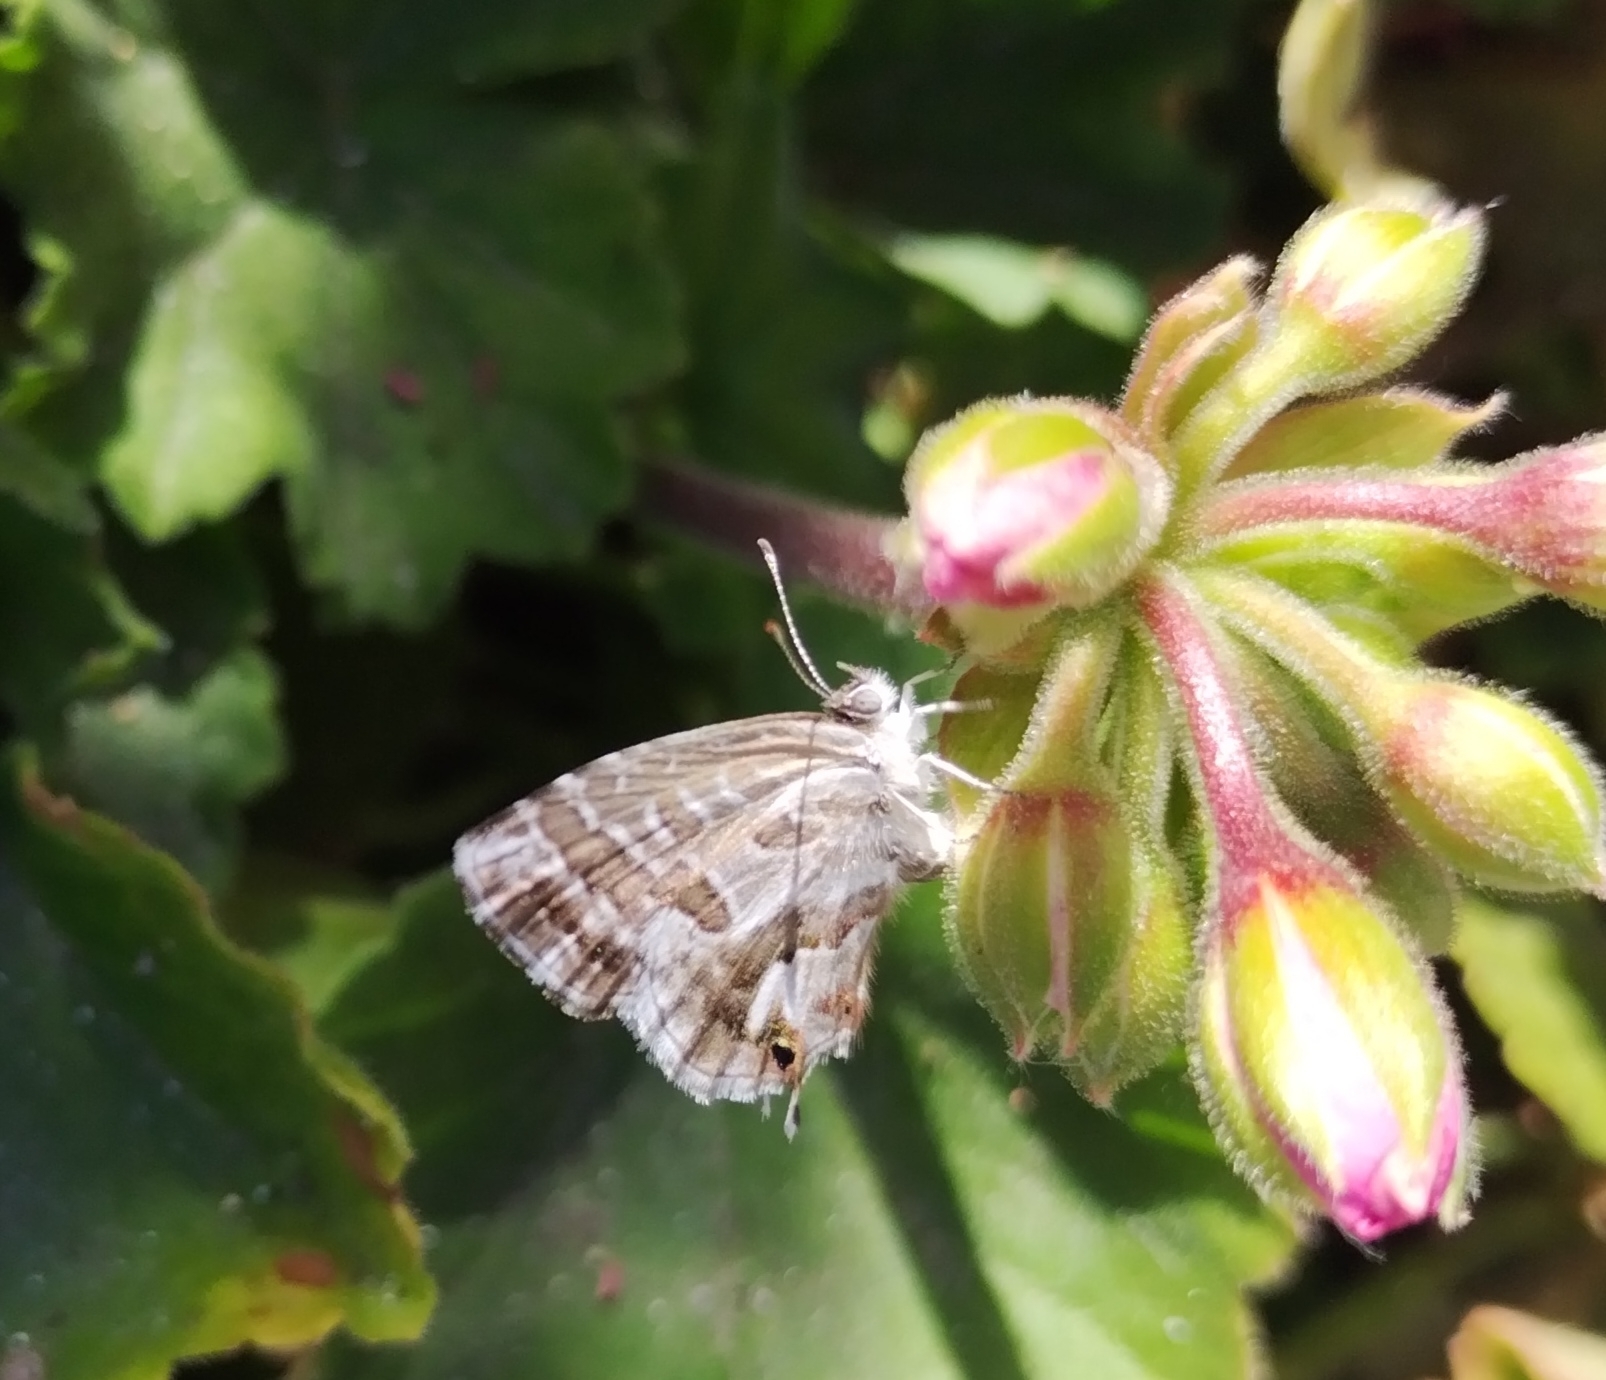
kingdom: Animalia
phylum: Arthropoda
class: Insecta
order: Lepidoptera
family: Lycaenidae
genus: Cacyreus
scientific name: Cacyreus marshalli
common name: Geranium bronze
